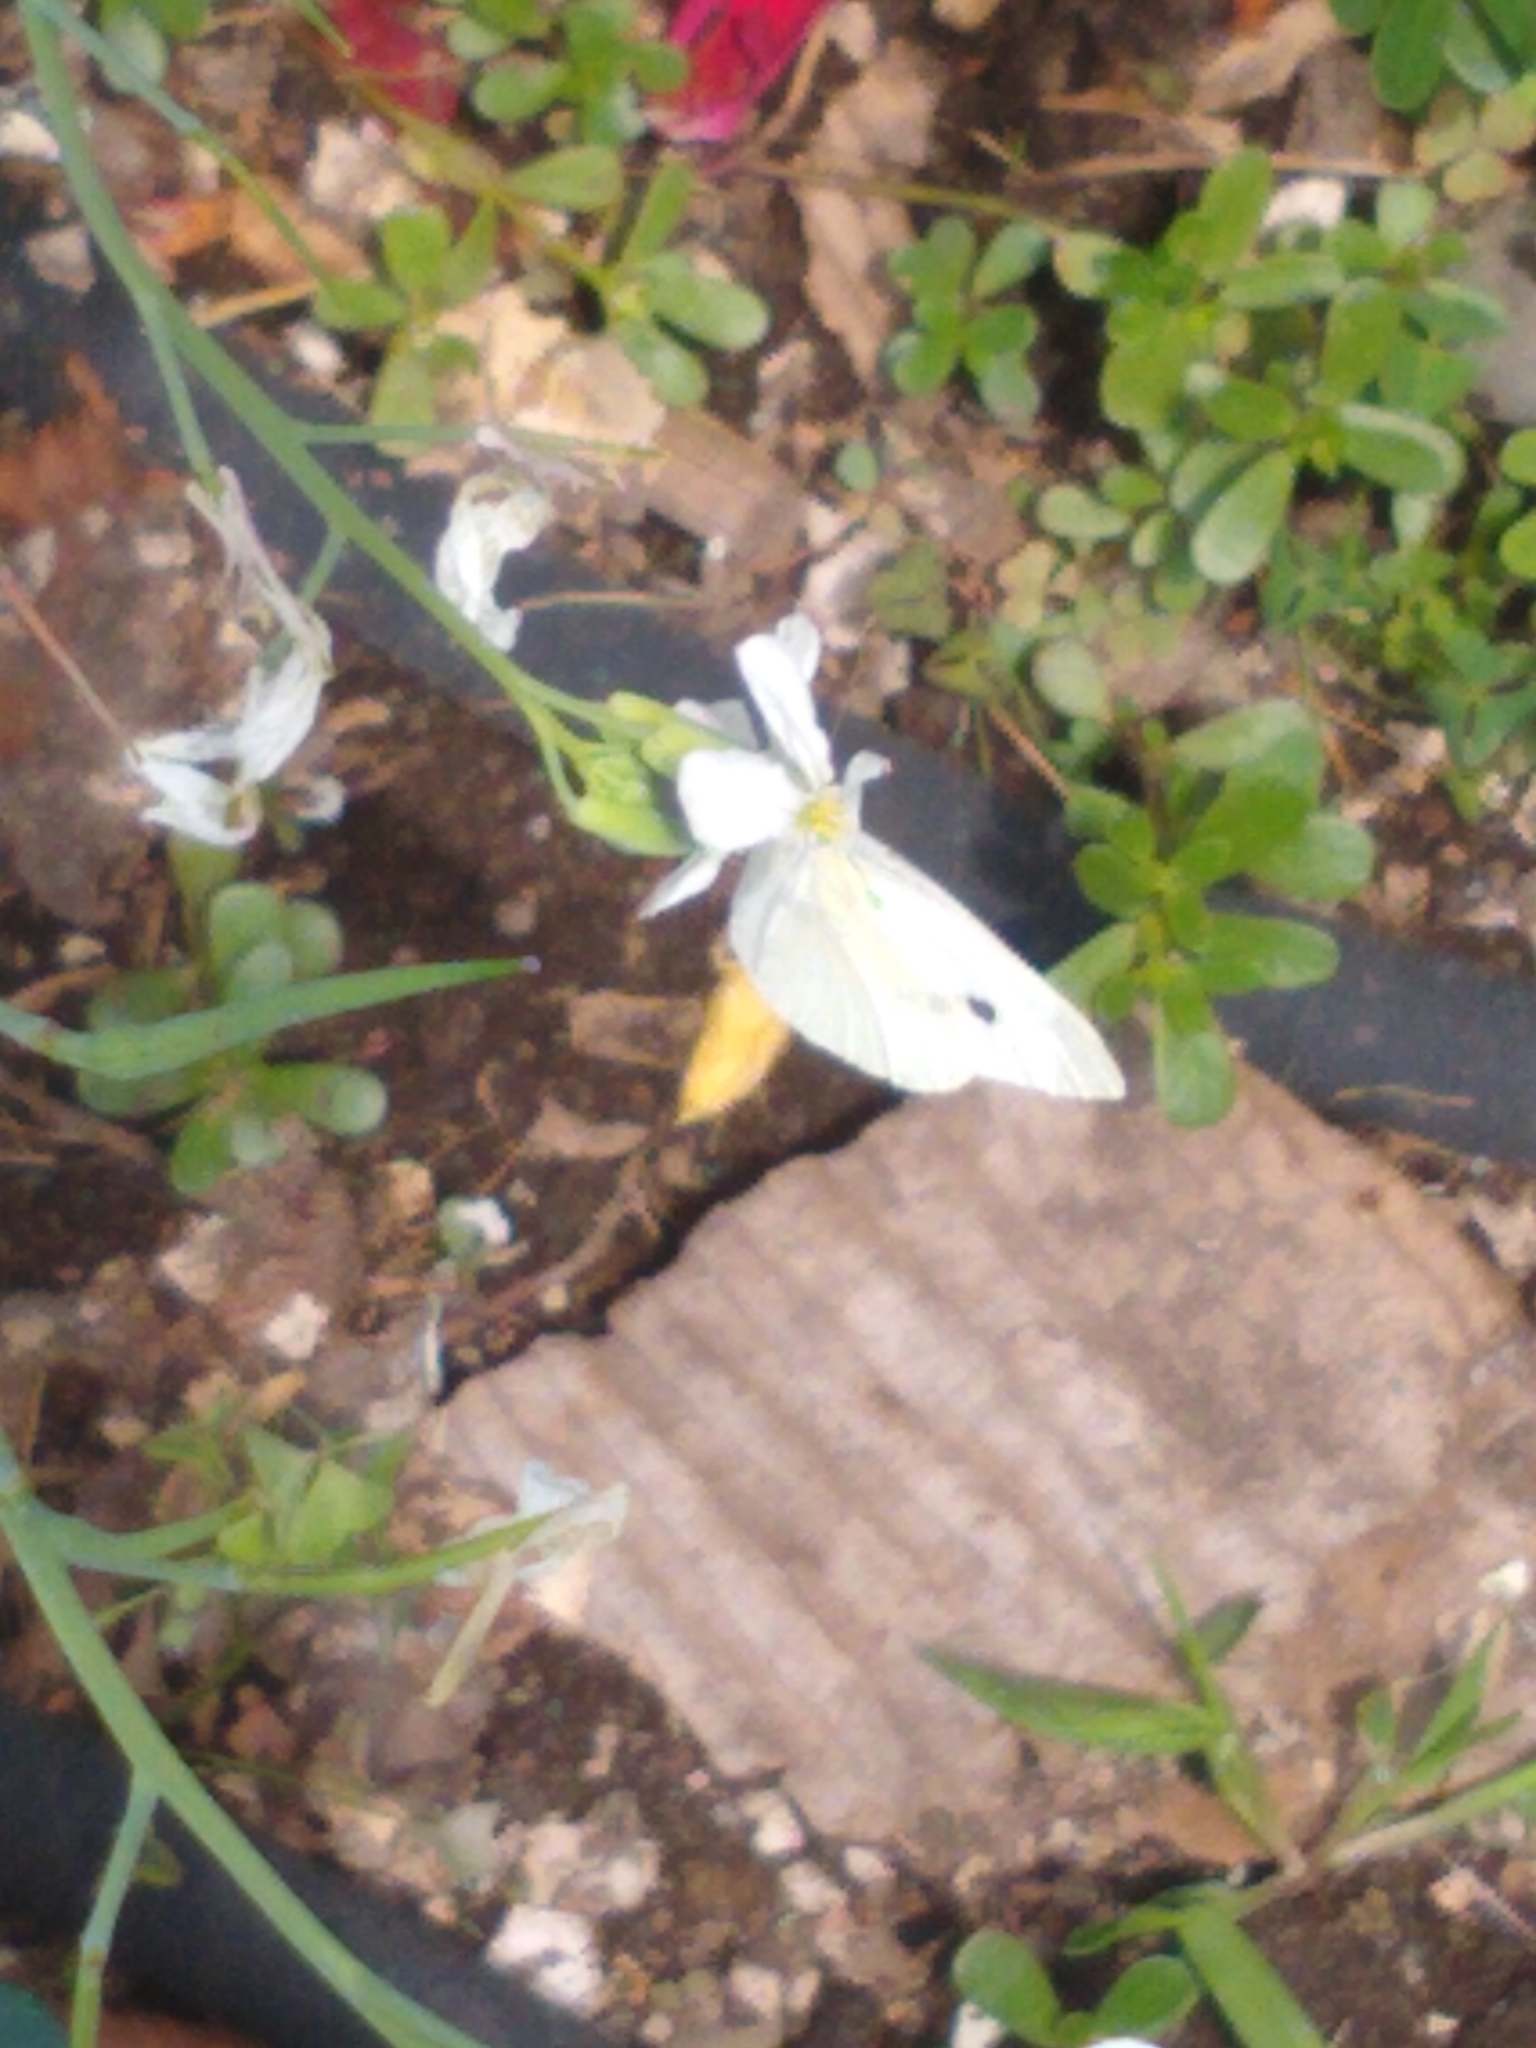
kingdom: Animalia
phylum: Arthropoda
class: Insecta
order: Lepidoptera
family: Pieridae
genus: Pieris
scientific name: Pieris rapae
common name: Small white
